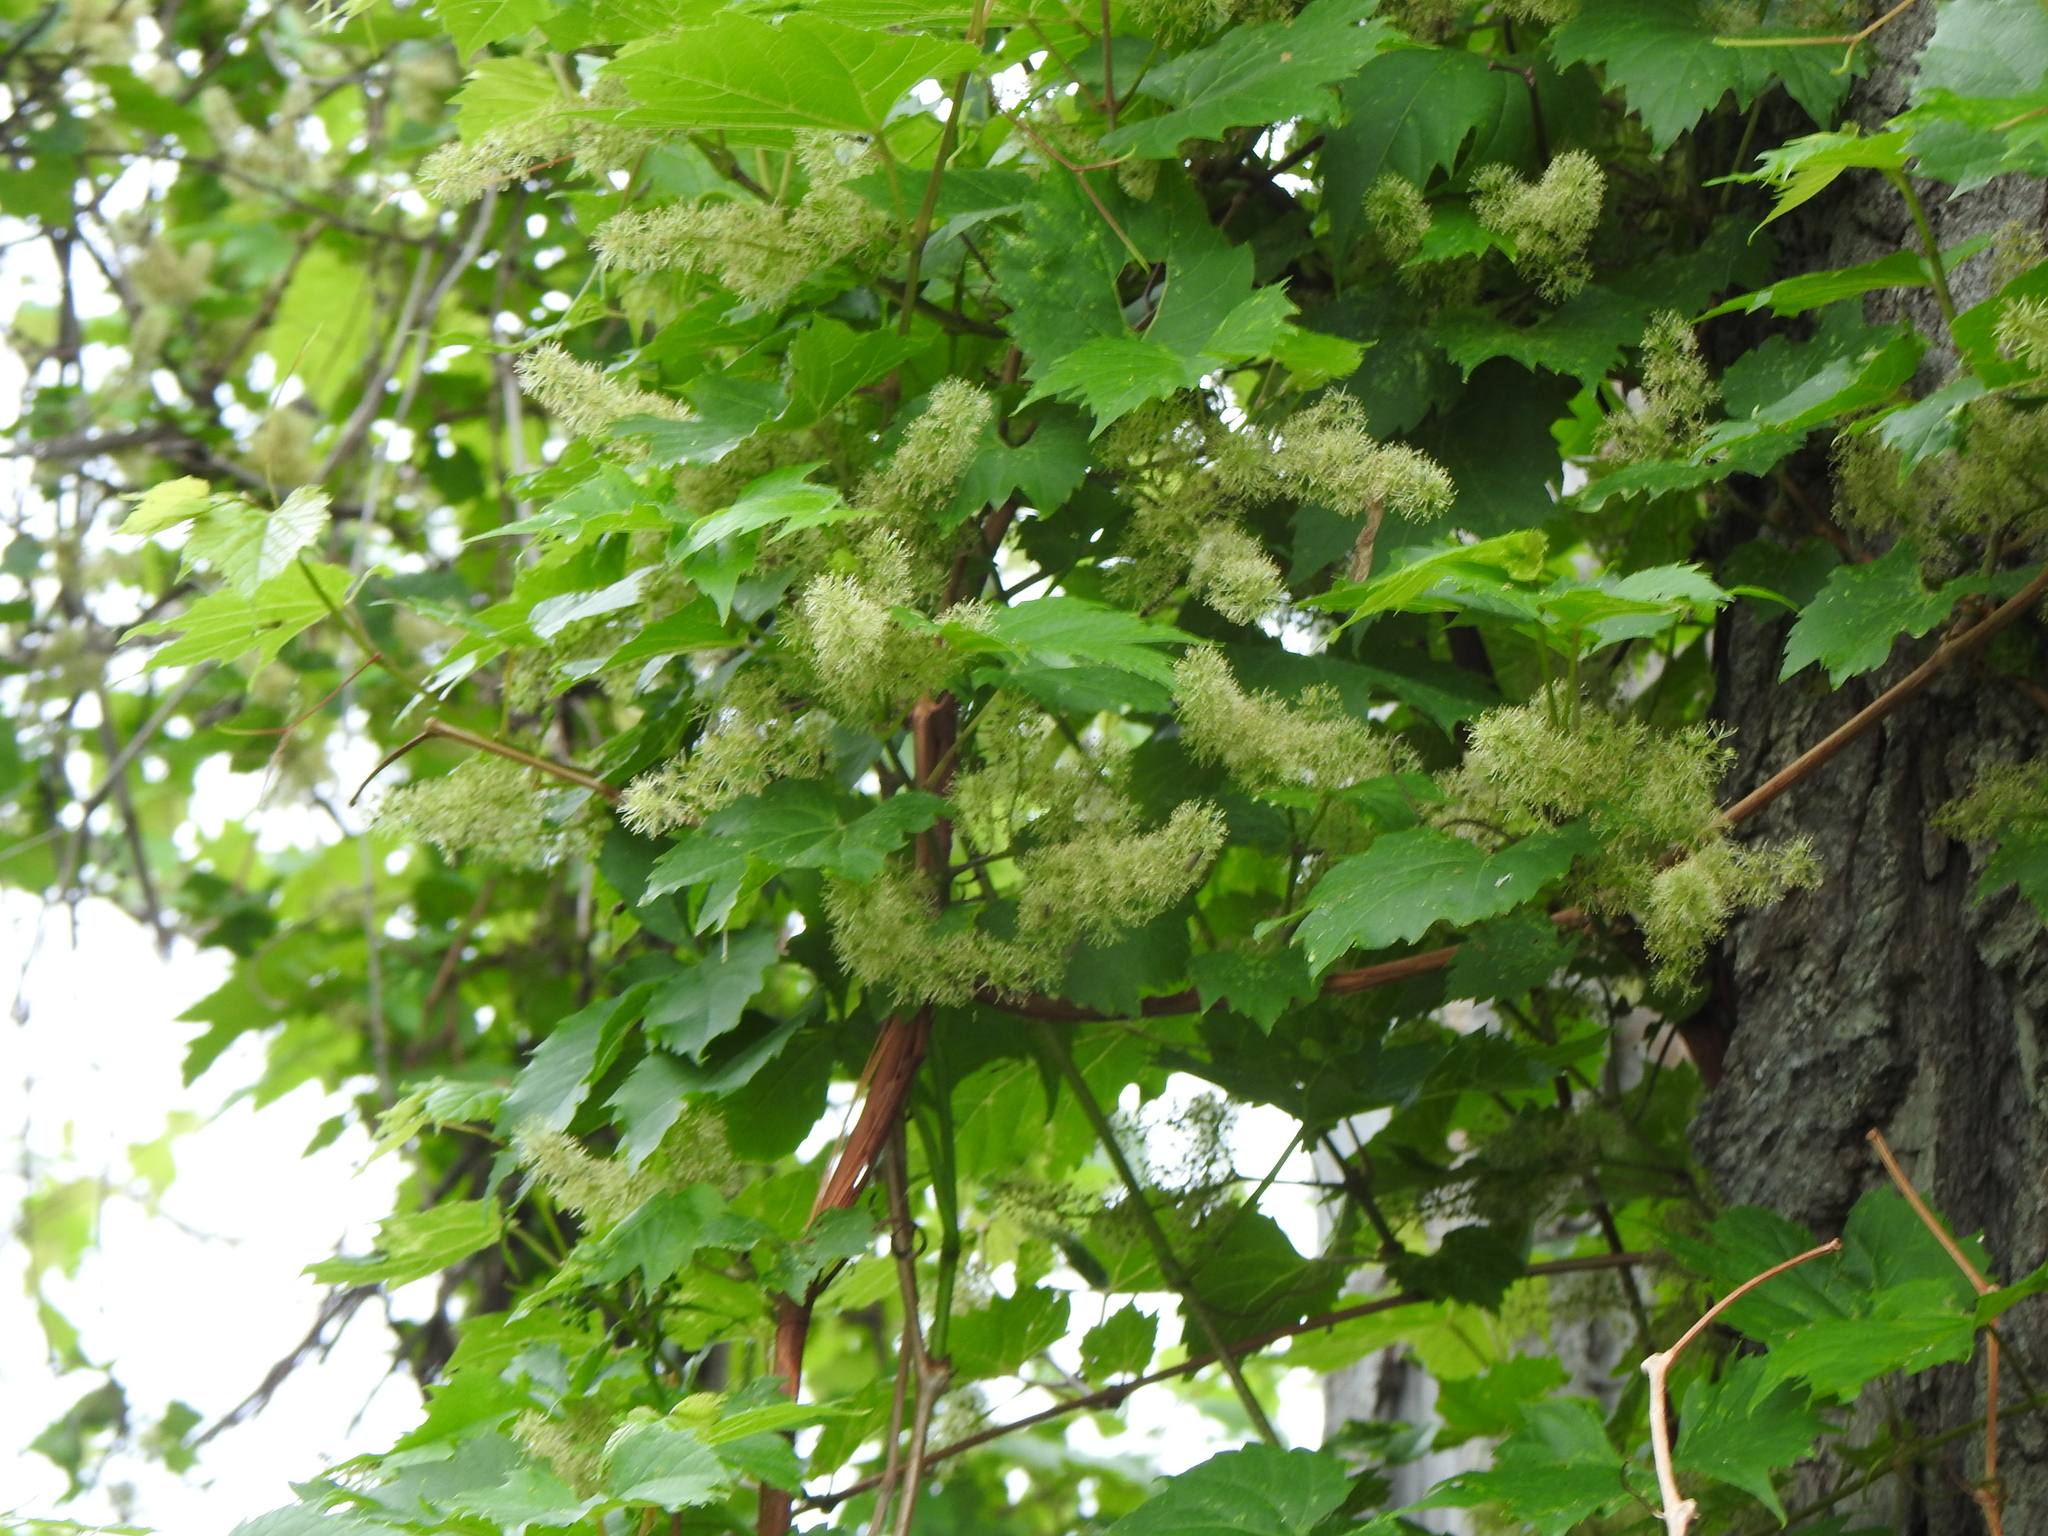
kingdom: Plantae
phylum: Tracheophyta
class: Magnoliopsida
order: Vitales
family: Vitaceae
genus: Vitis
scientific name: Vitis riparia
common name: Frost grape
